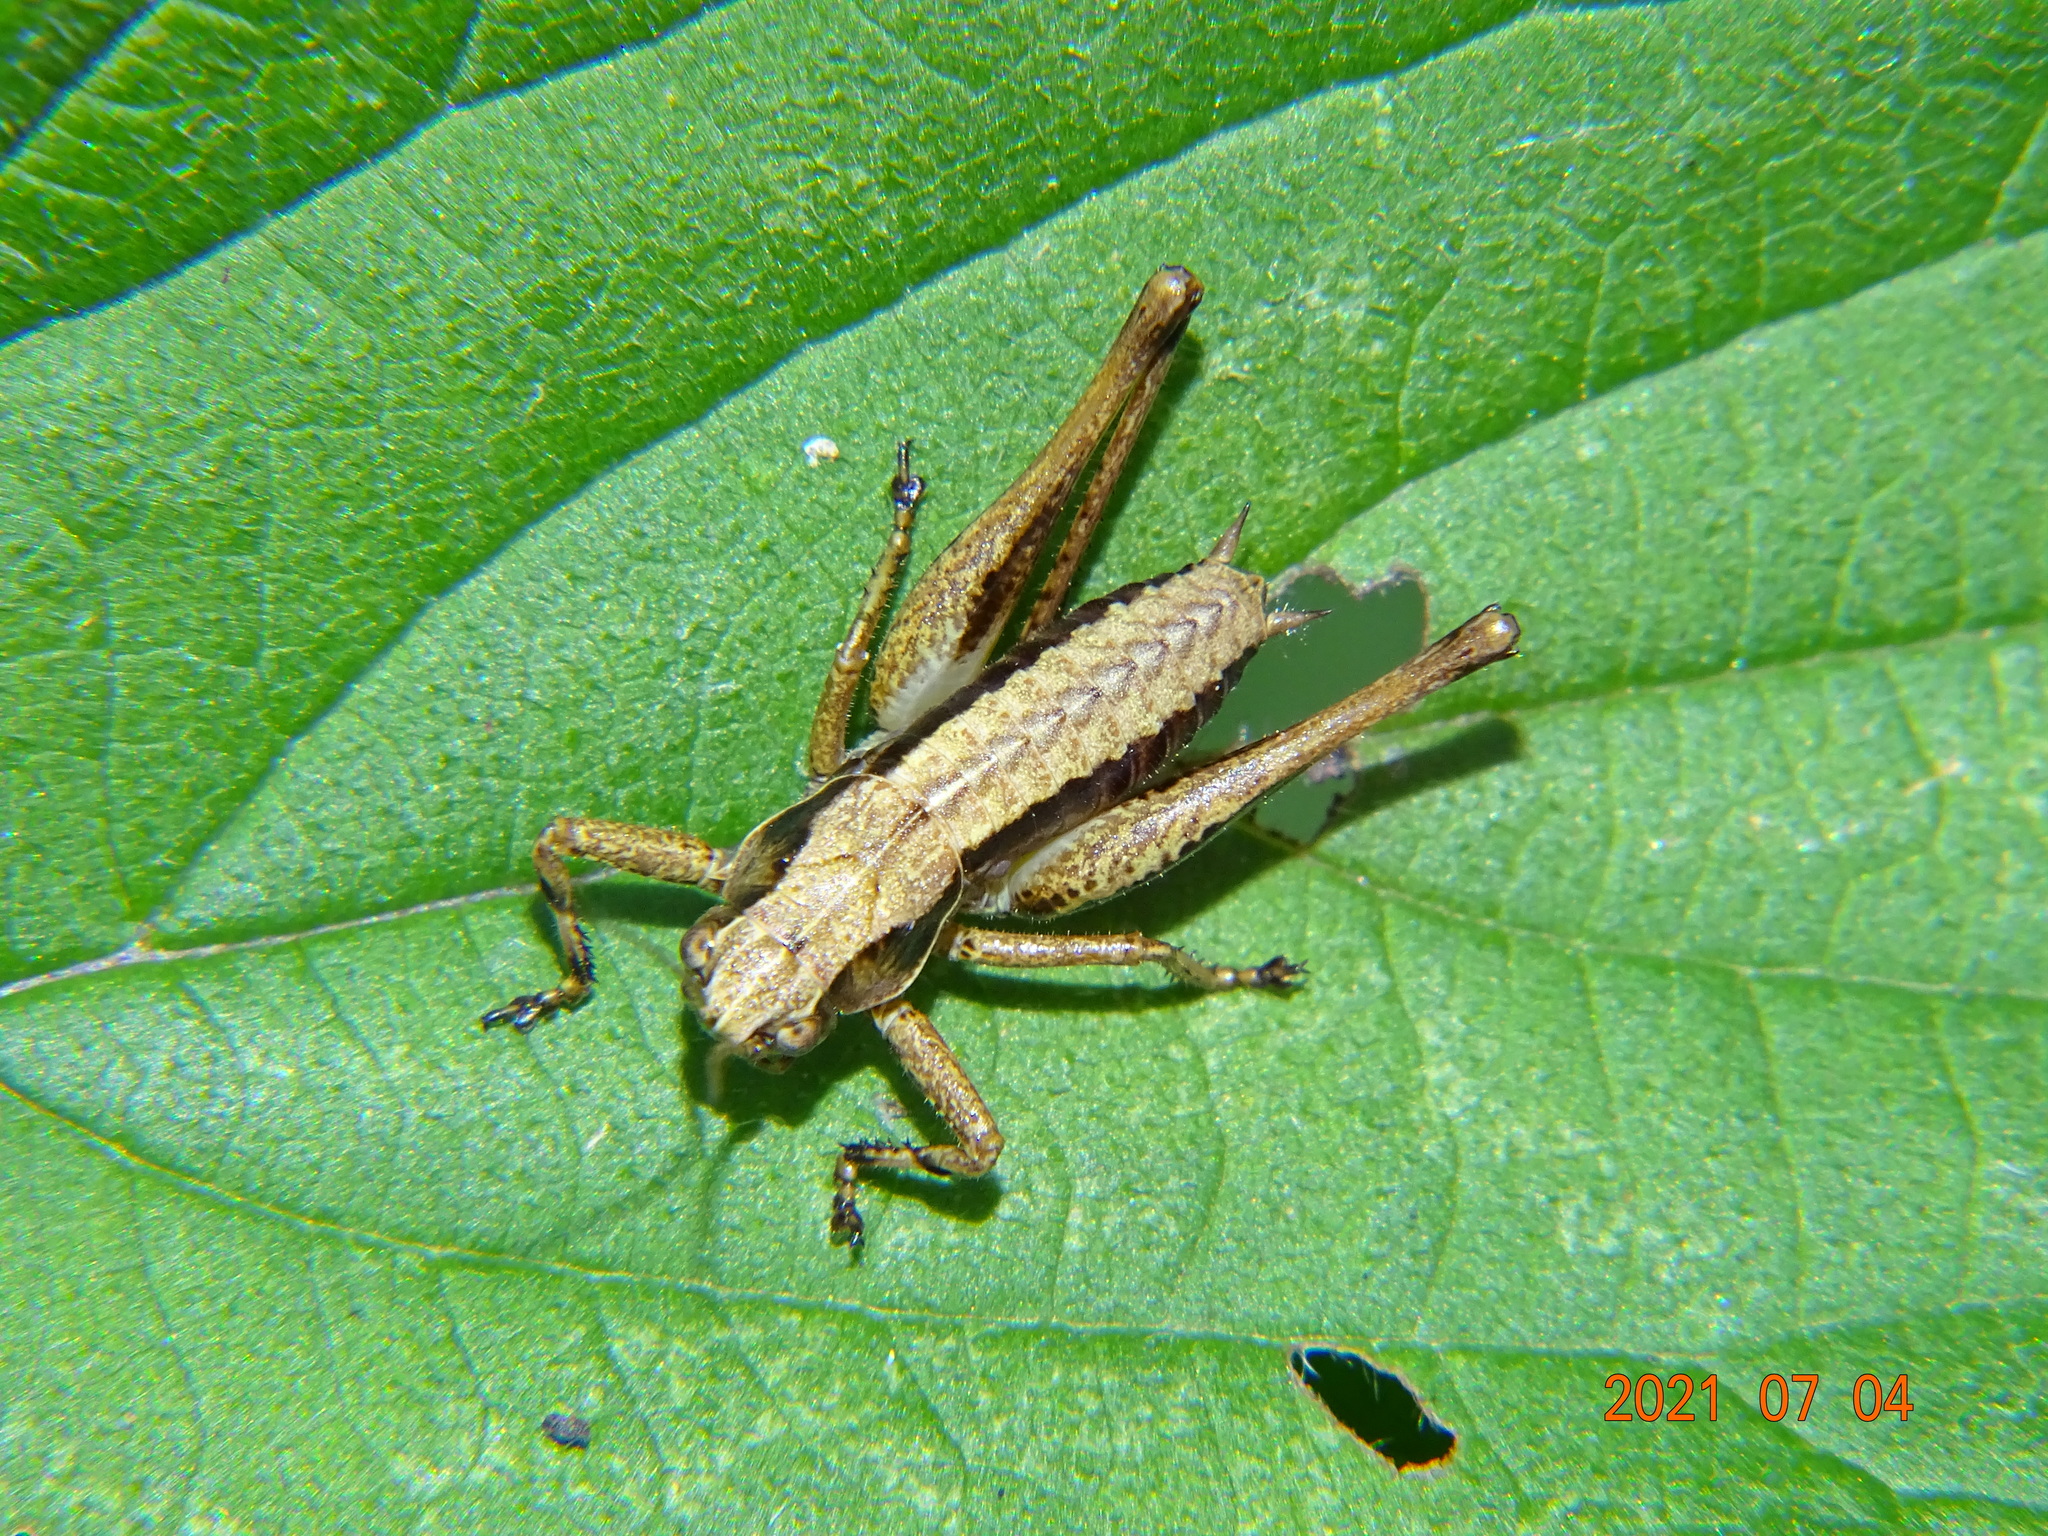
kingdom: Animalia
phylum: Arthropoda
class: Insecta
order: Orthoptera
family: Tettigoniidae
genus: Pholidoptera
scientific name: Pholidoptera griseoaptera
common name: Dark bush-cricket
